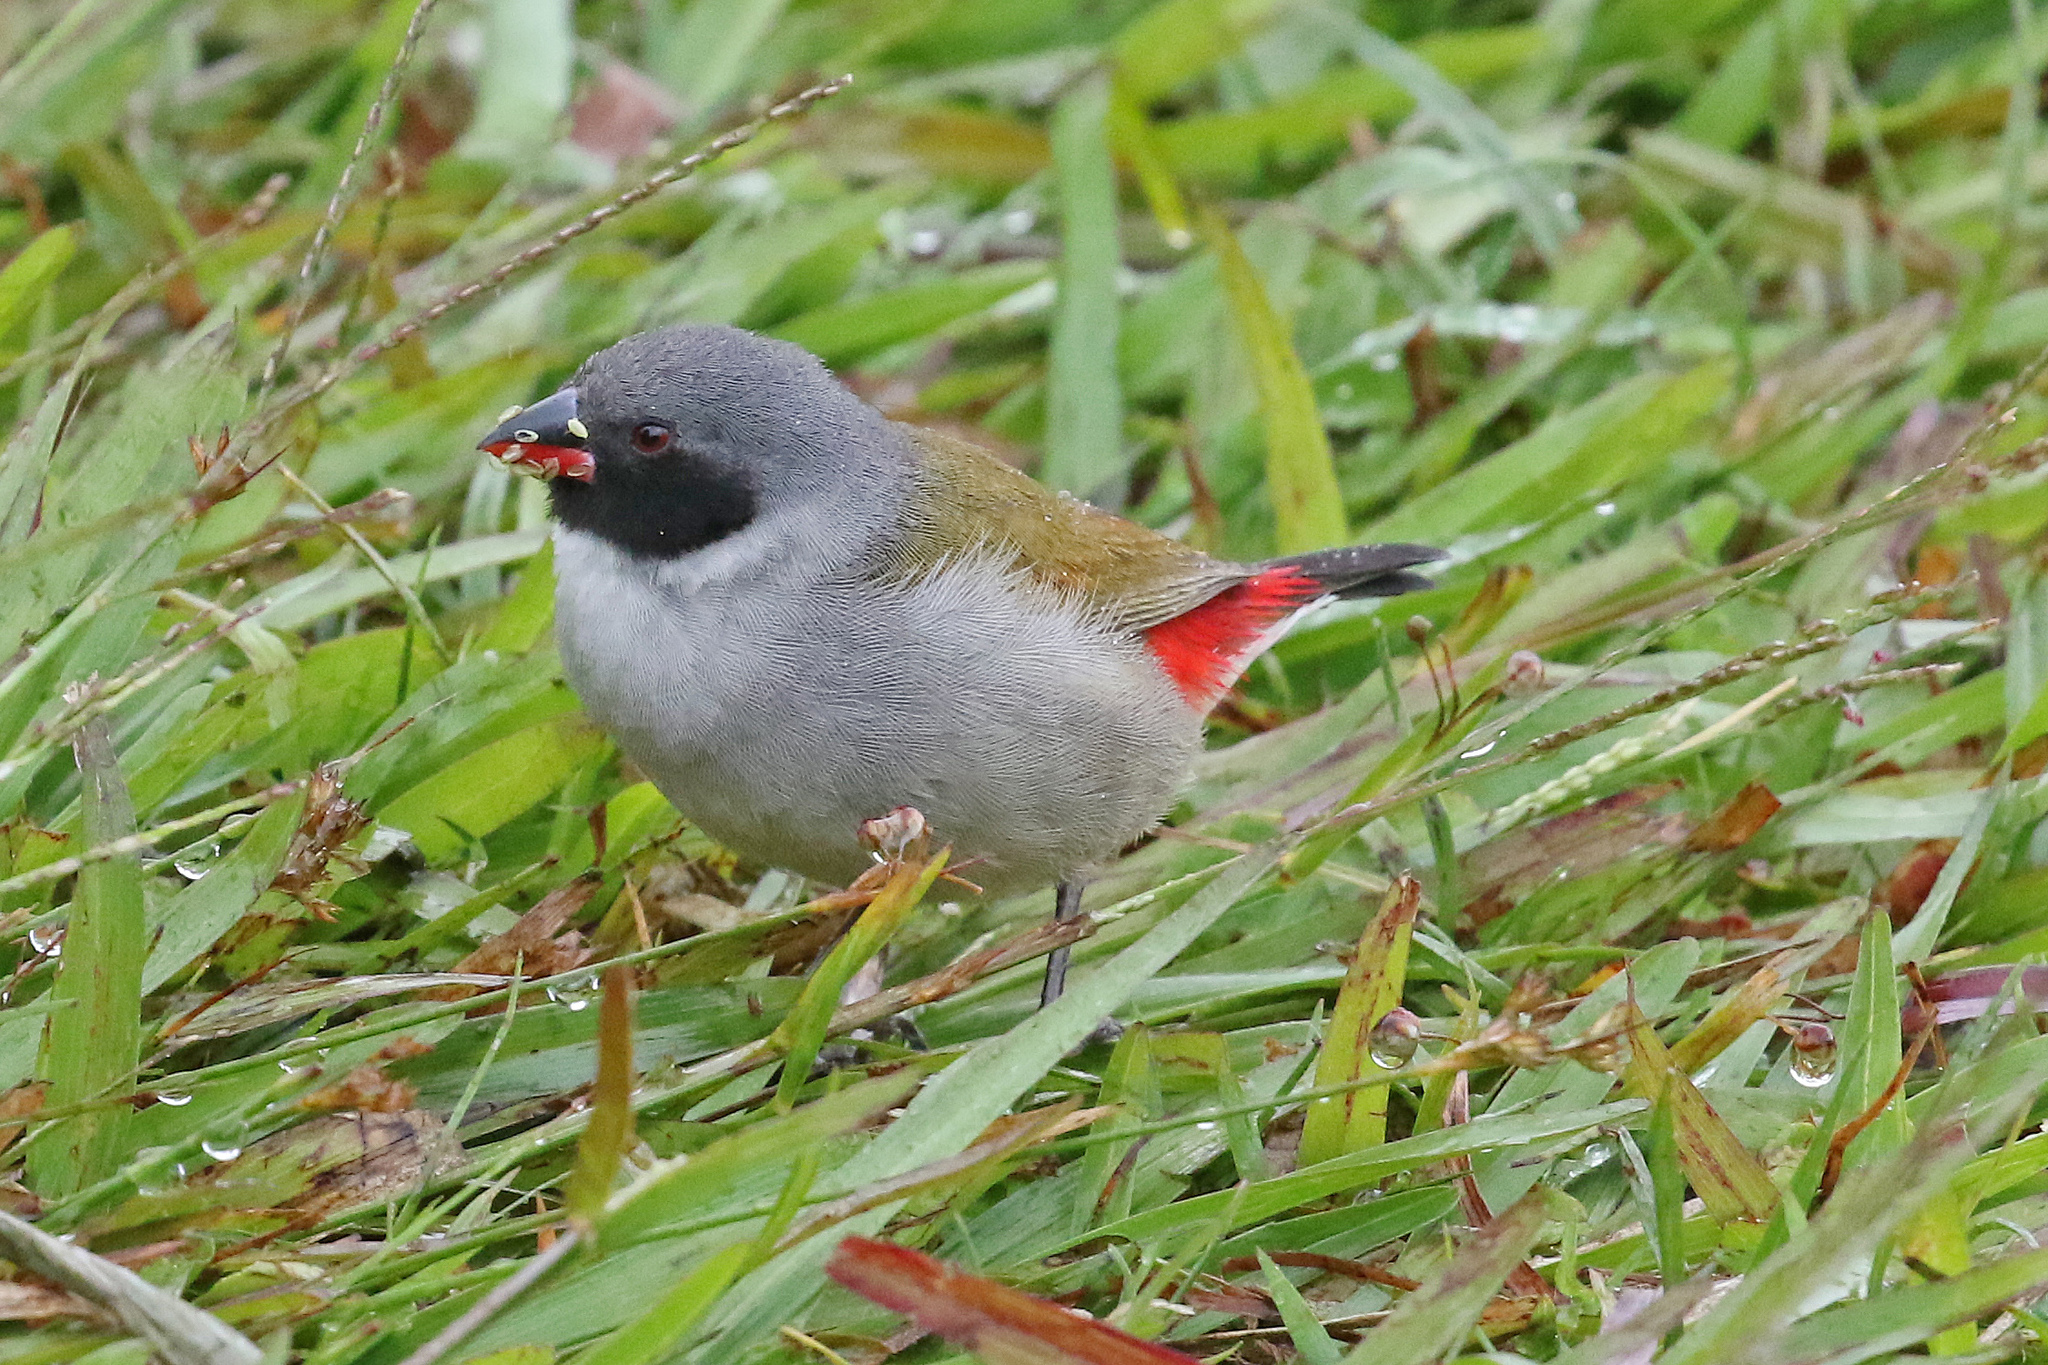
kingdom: Animalia
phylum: Chordata
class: Aves
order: Passeriformes
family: Estrildidae
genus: Coccopygia
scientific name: Coccopygia melanotis
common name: Swee waxbill
